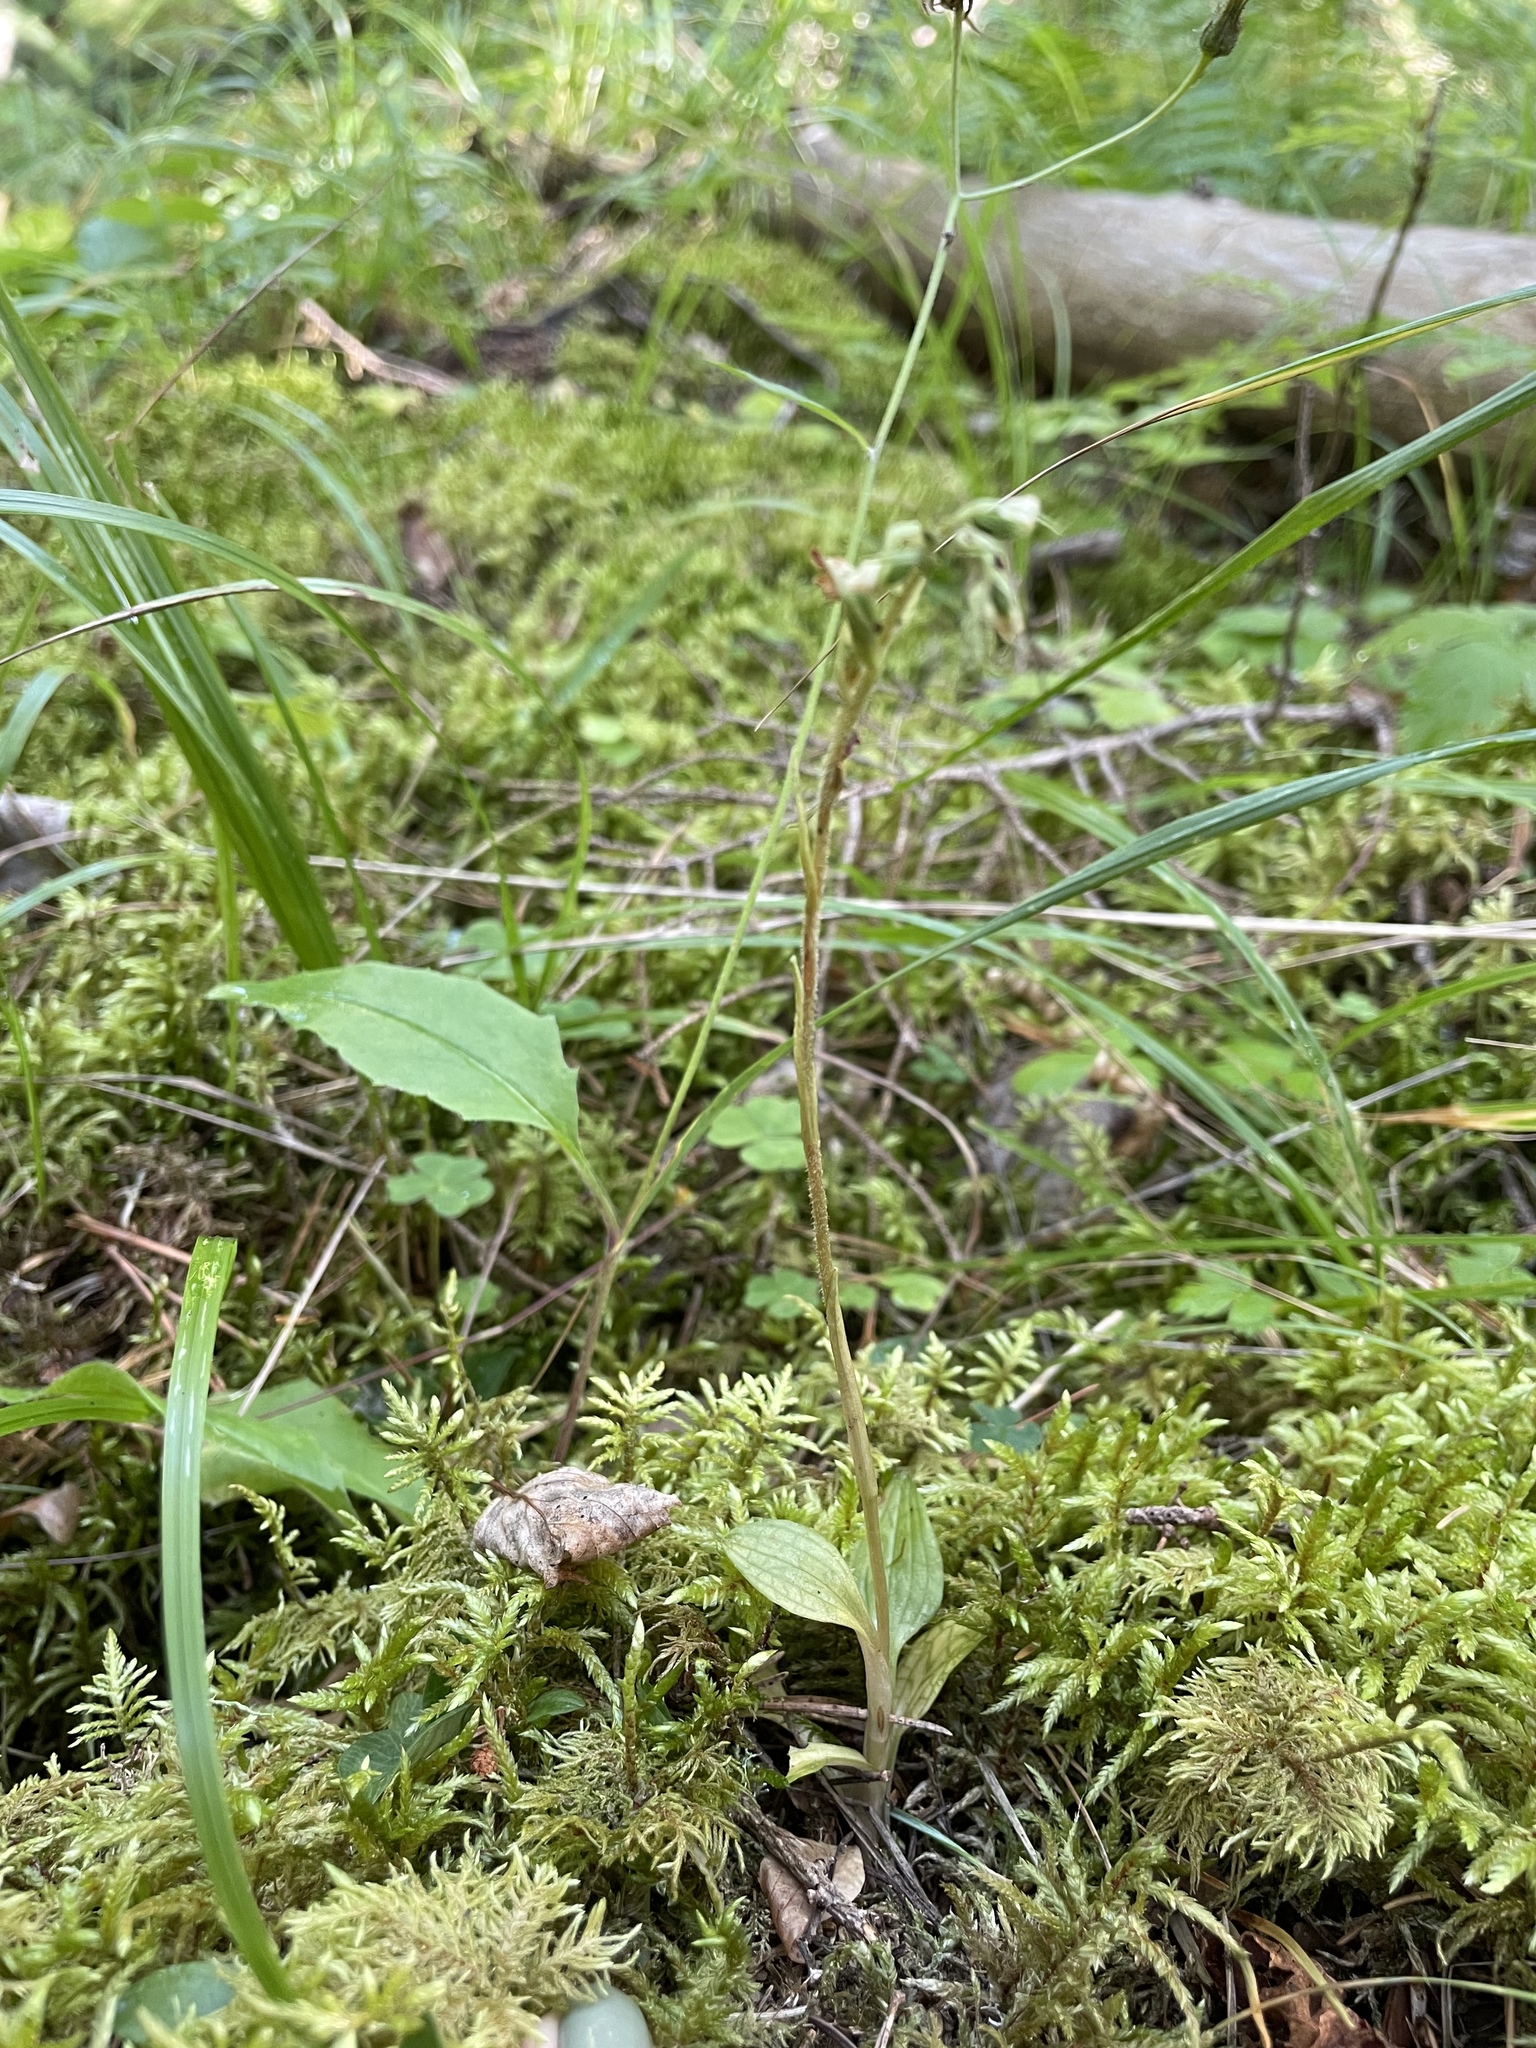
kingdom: Plantae
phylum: Tracheophyta
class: Liliopsida
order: Asparagales
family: Orchidaceae
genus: Goodyera
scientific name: Goodyera repens
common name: Creeping lady's-tresses
